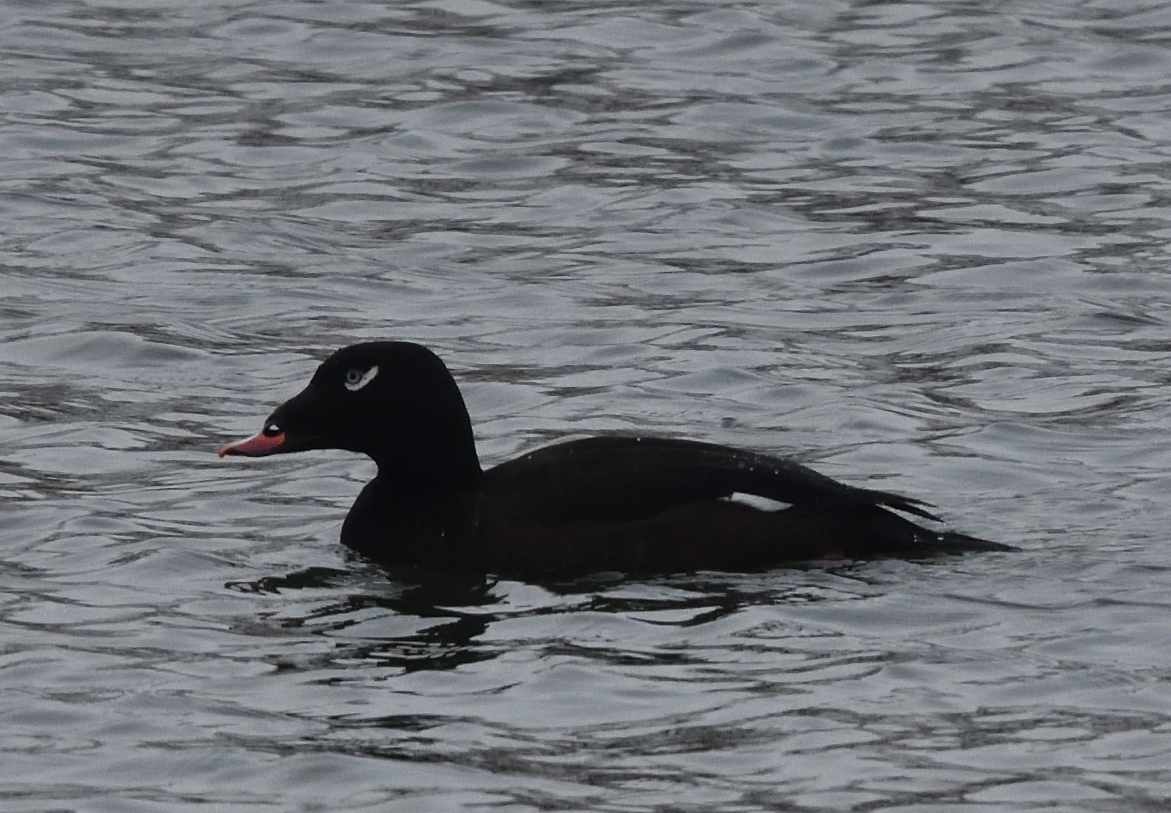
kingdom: Animalia
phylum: Chordata
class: Aves
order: Anseriformes
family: Anatidae
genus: Melanitta
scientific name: Melanitta deglandi
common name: White-winged scoter
